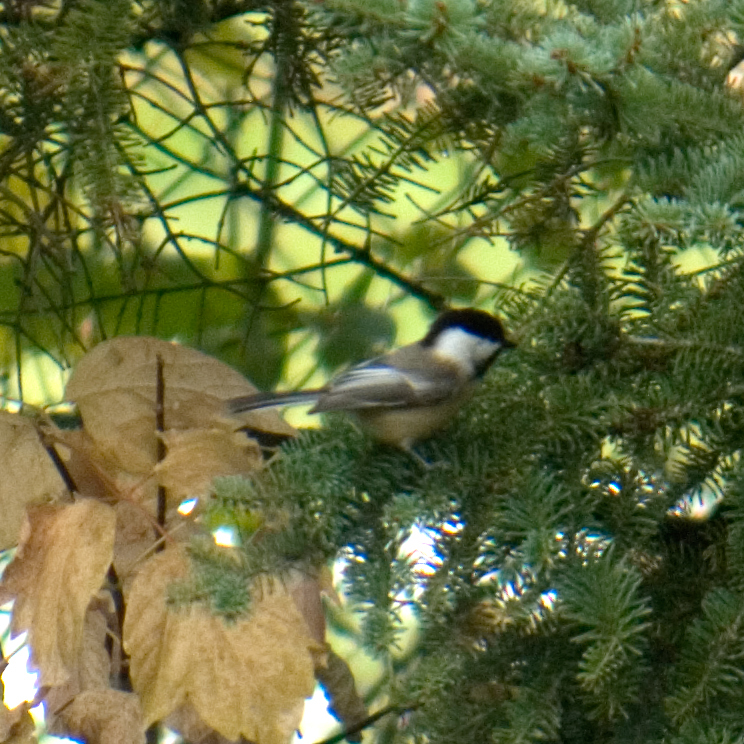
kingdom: Animalia
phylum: Chordata
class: Aves
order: Passeriformes
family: Paridae
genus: Poecile
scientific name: Poecile atricapillus
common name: Black-capped chickadee
